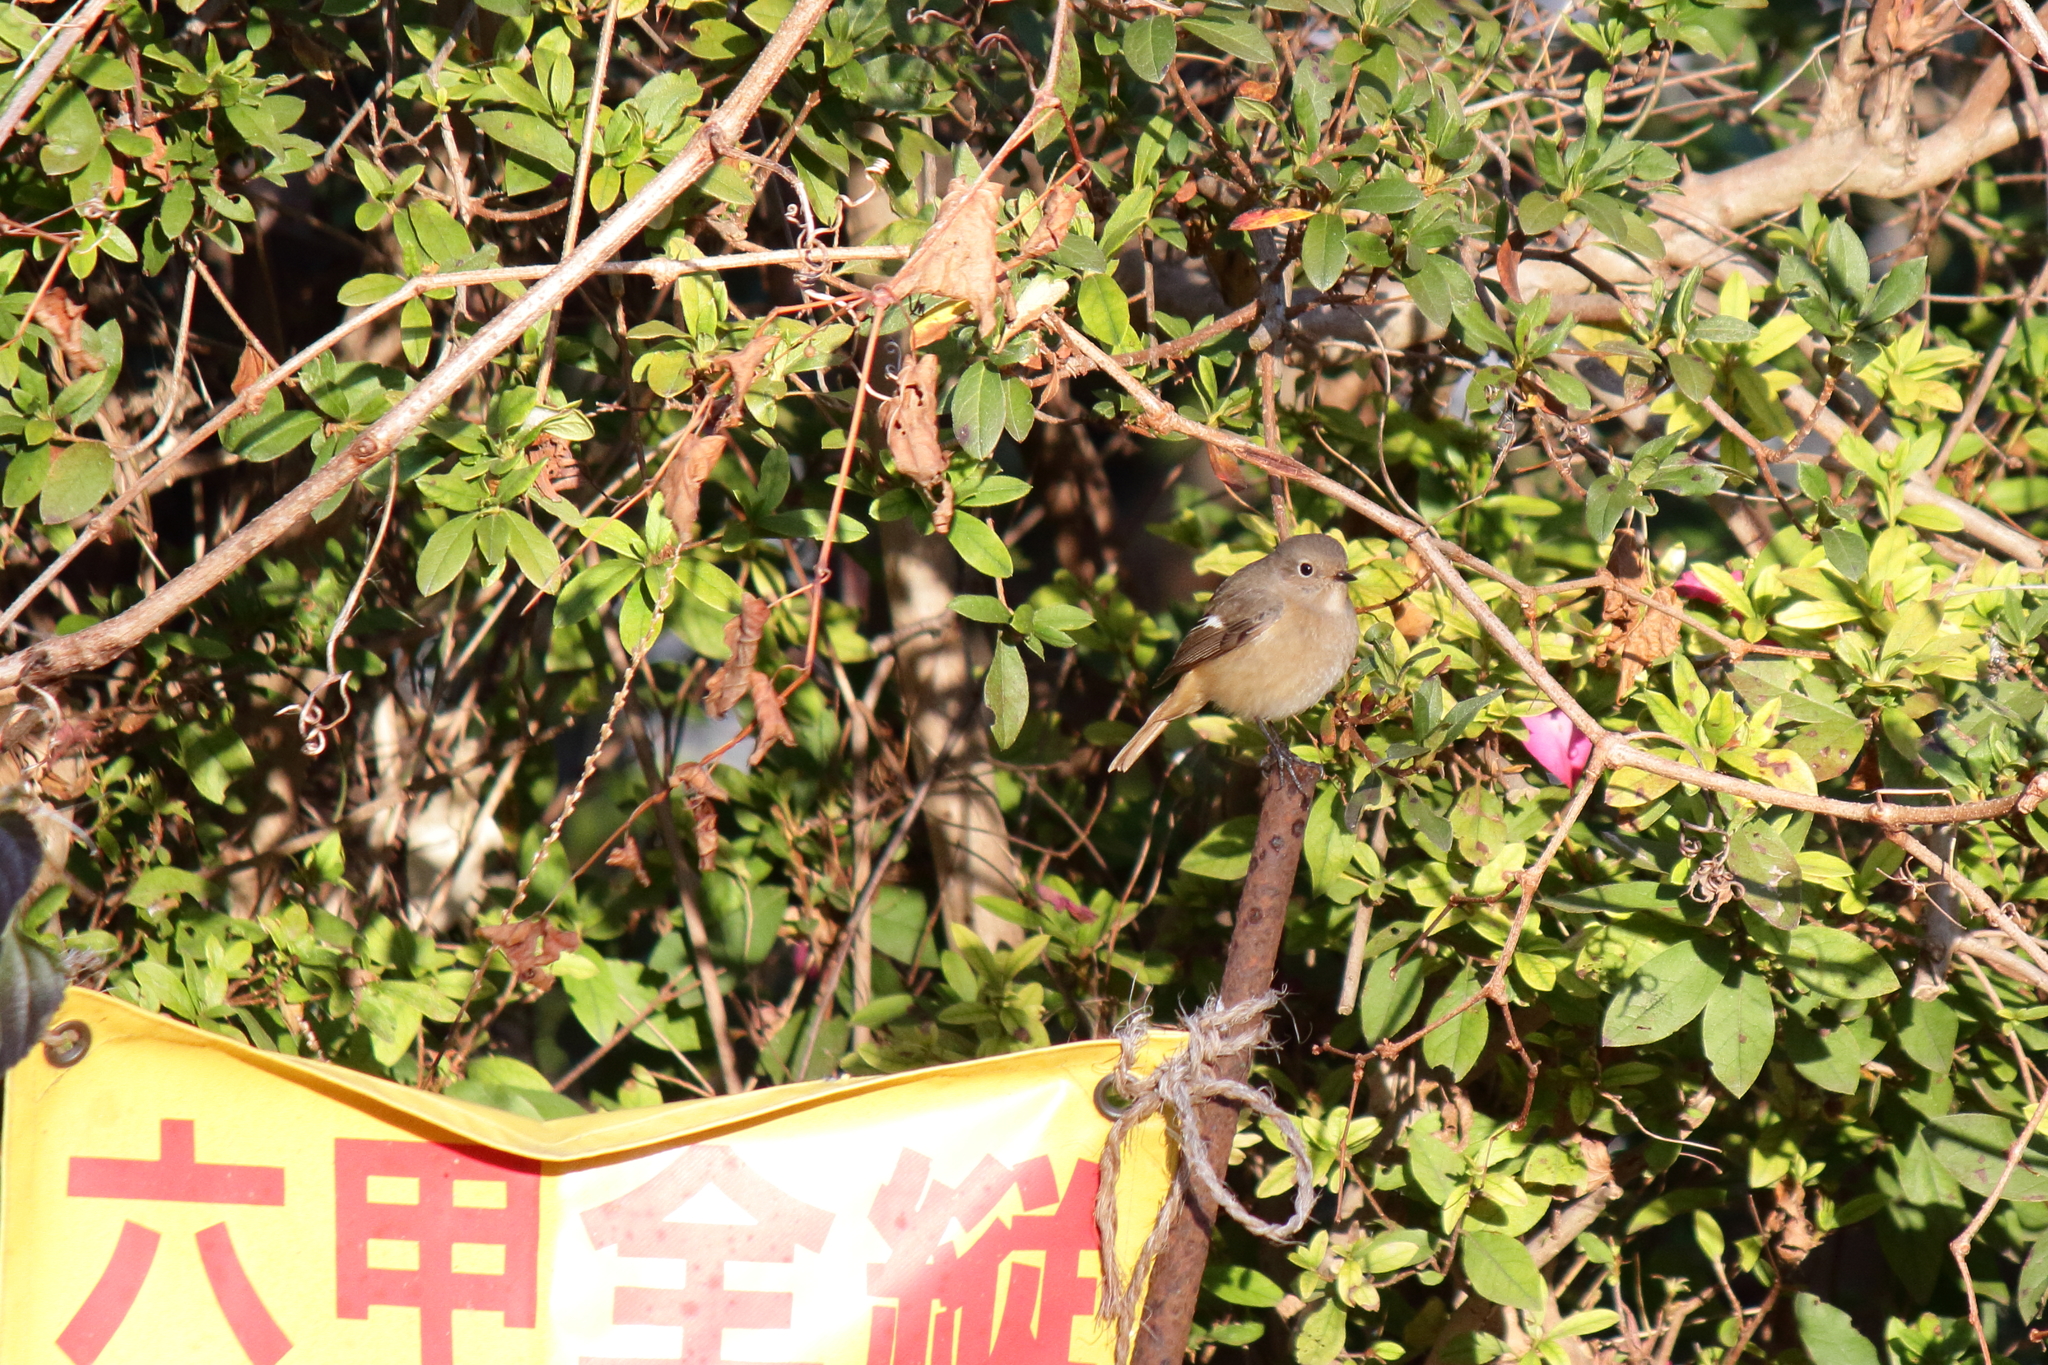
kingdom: Animalia
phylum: Chordata
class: Aves
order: Passeriformes
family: Muscicapidae
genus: Phoenicurus
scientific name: Phoenicurus auroreus
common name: Daurian redstart
